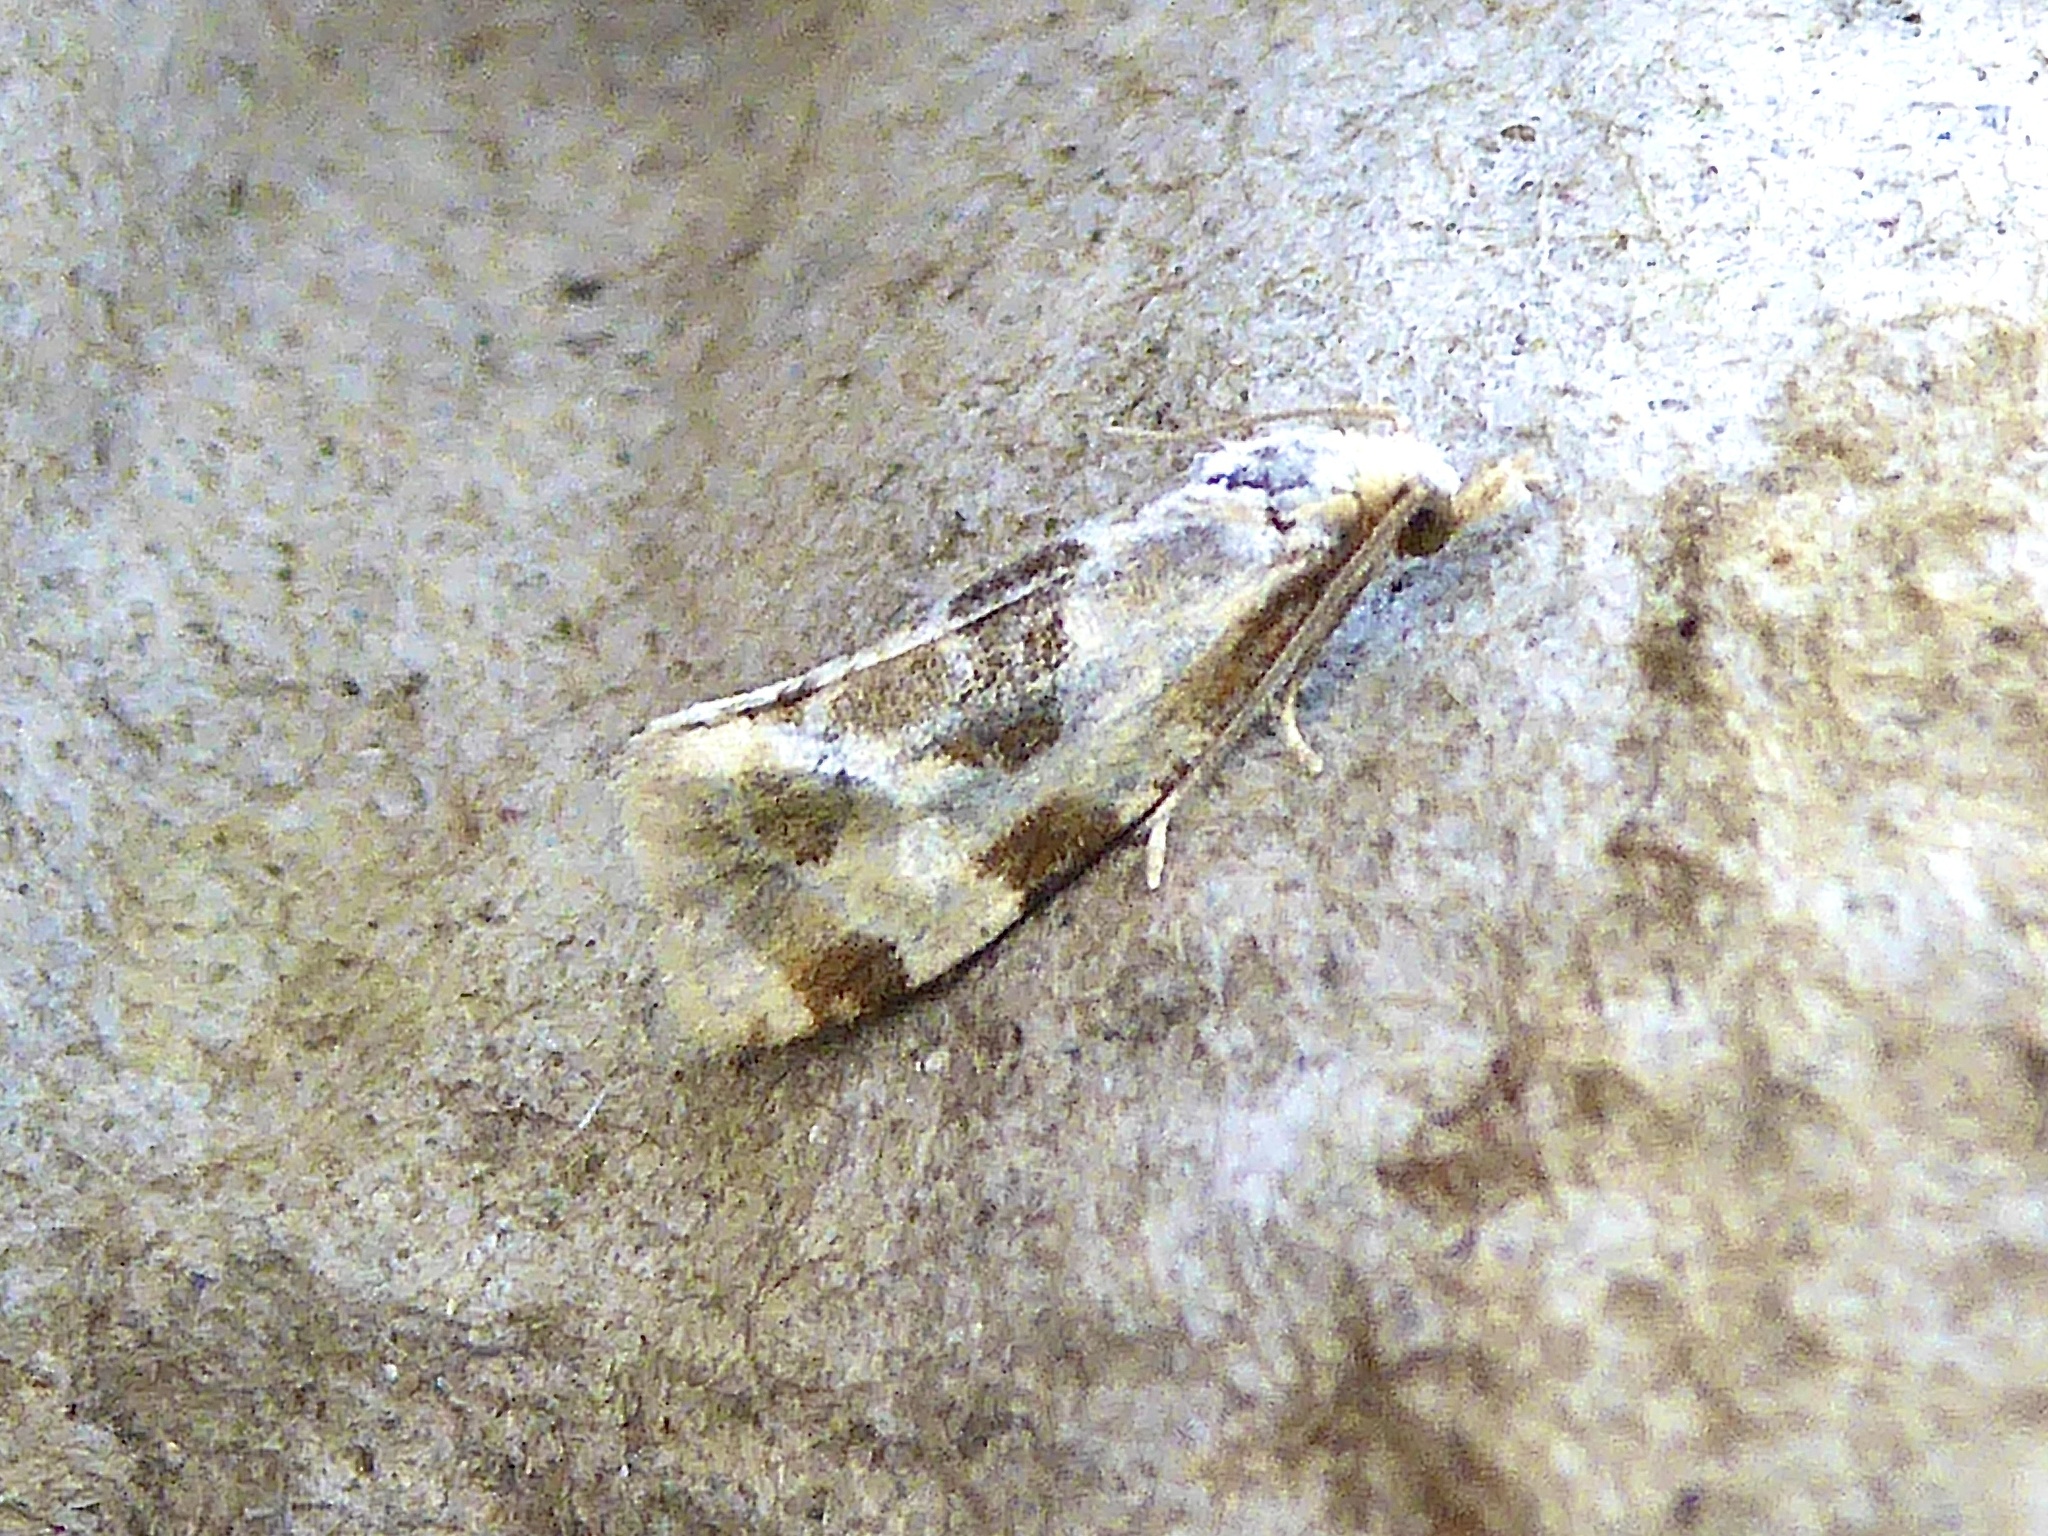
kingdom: Animalia
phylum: Arthropoda
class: Insecta
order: Lepidoptera
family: Tortricidae
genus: Aethes
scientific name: Aethes rubigana
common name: Burdock conch
